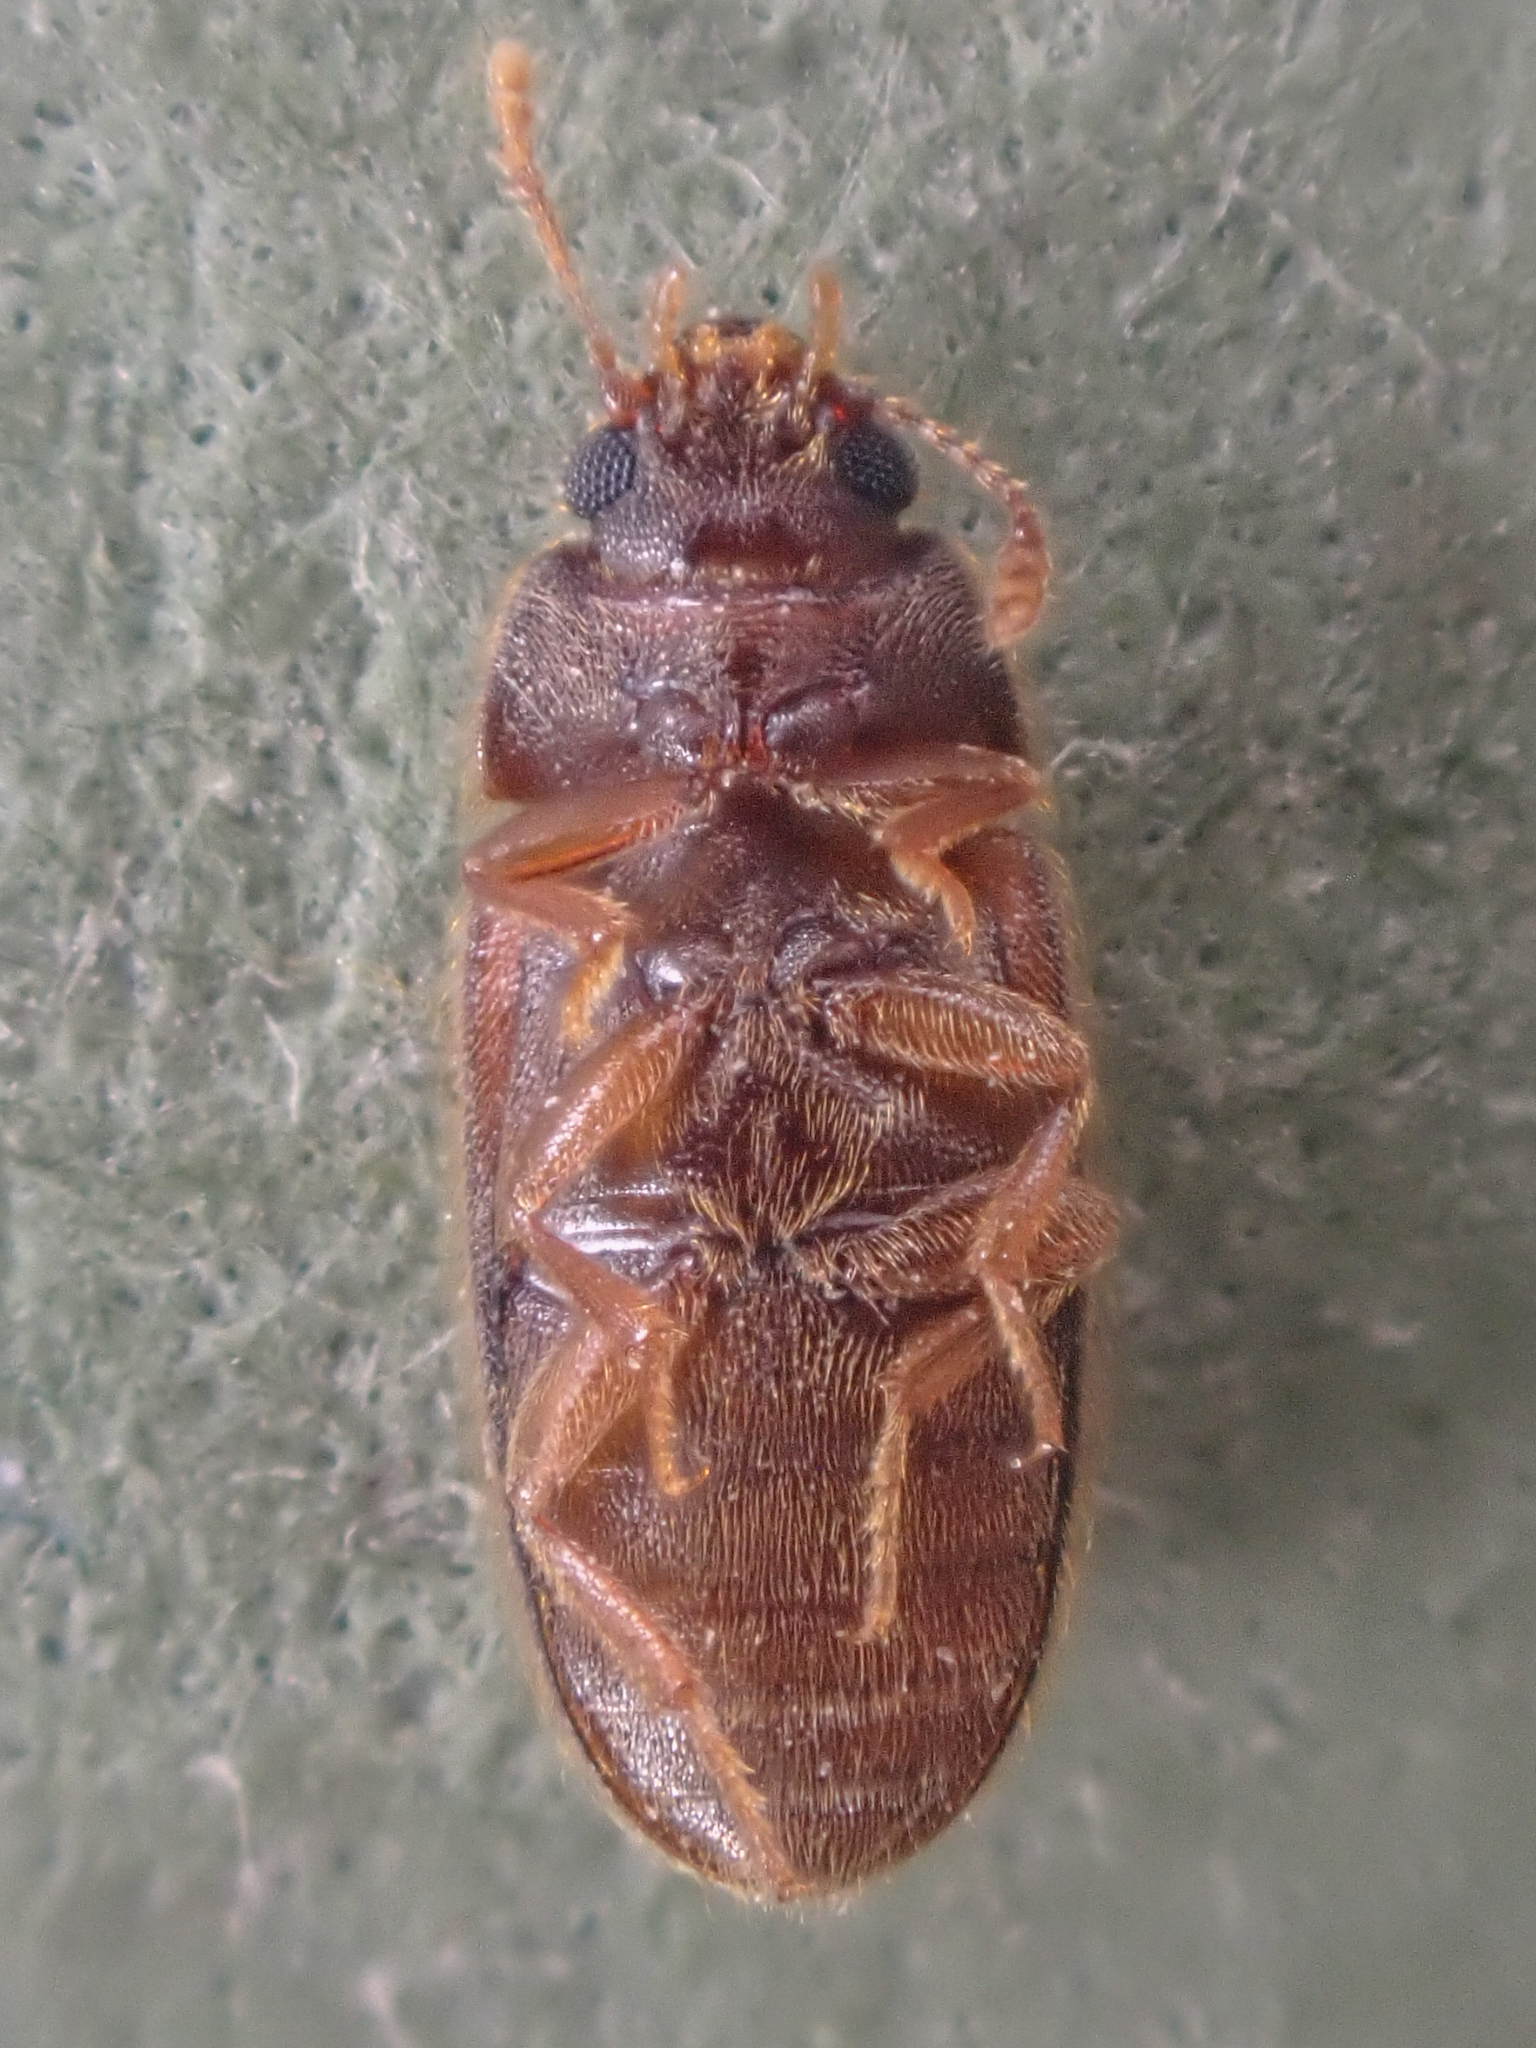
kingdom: Animalia
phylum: Arthropoda
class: Insecta
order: Coleoptera
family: Mycetophagidae
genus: Typhaea
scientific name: Typhaea stercorea
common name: Hairy fungus beetle
